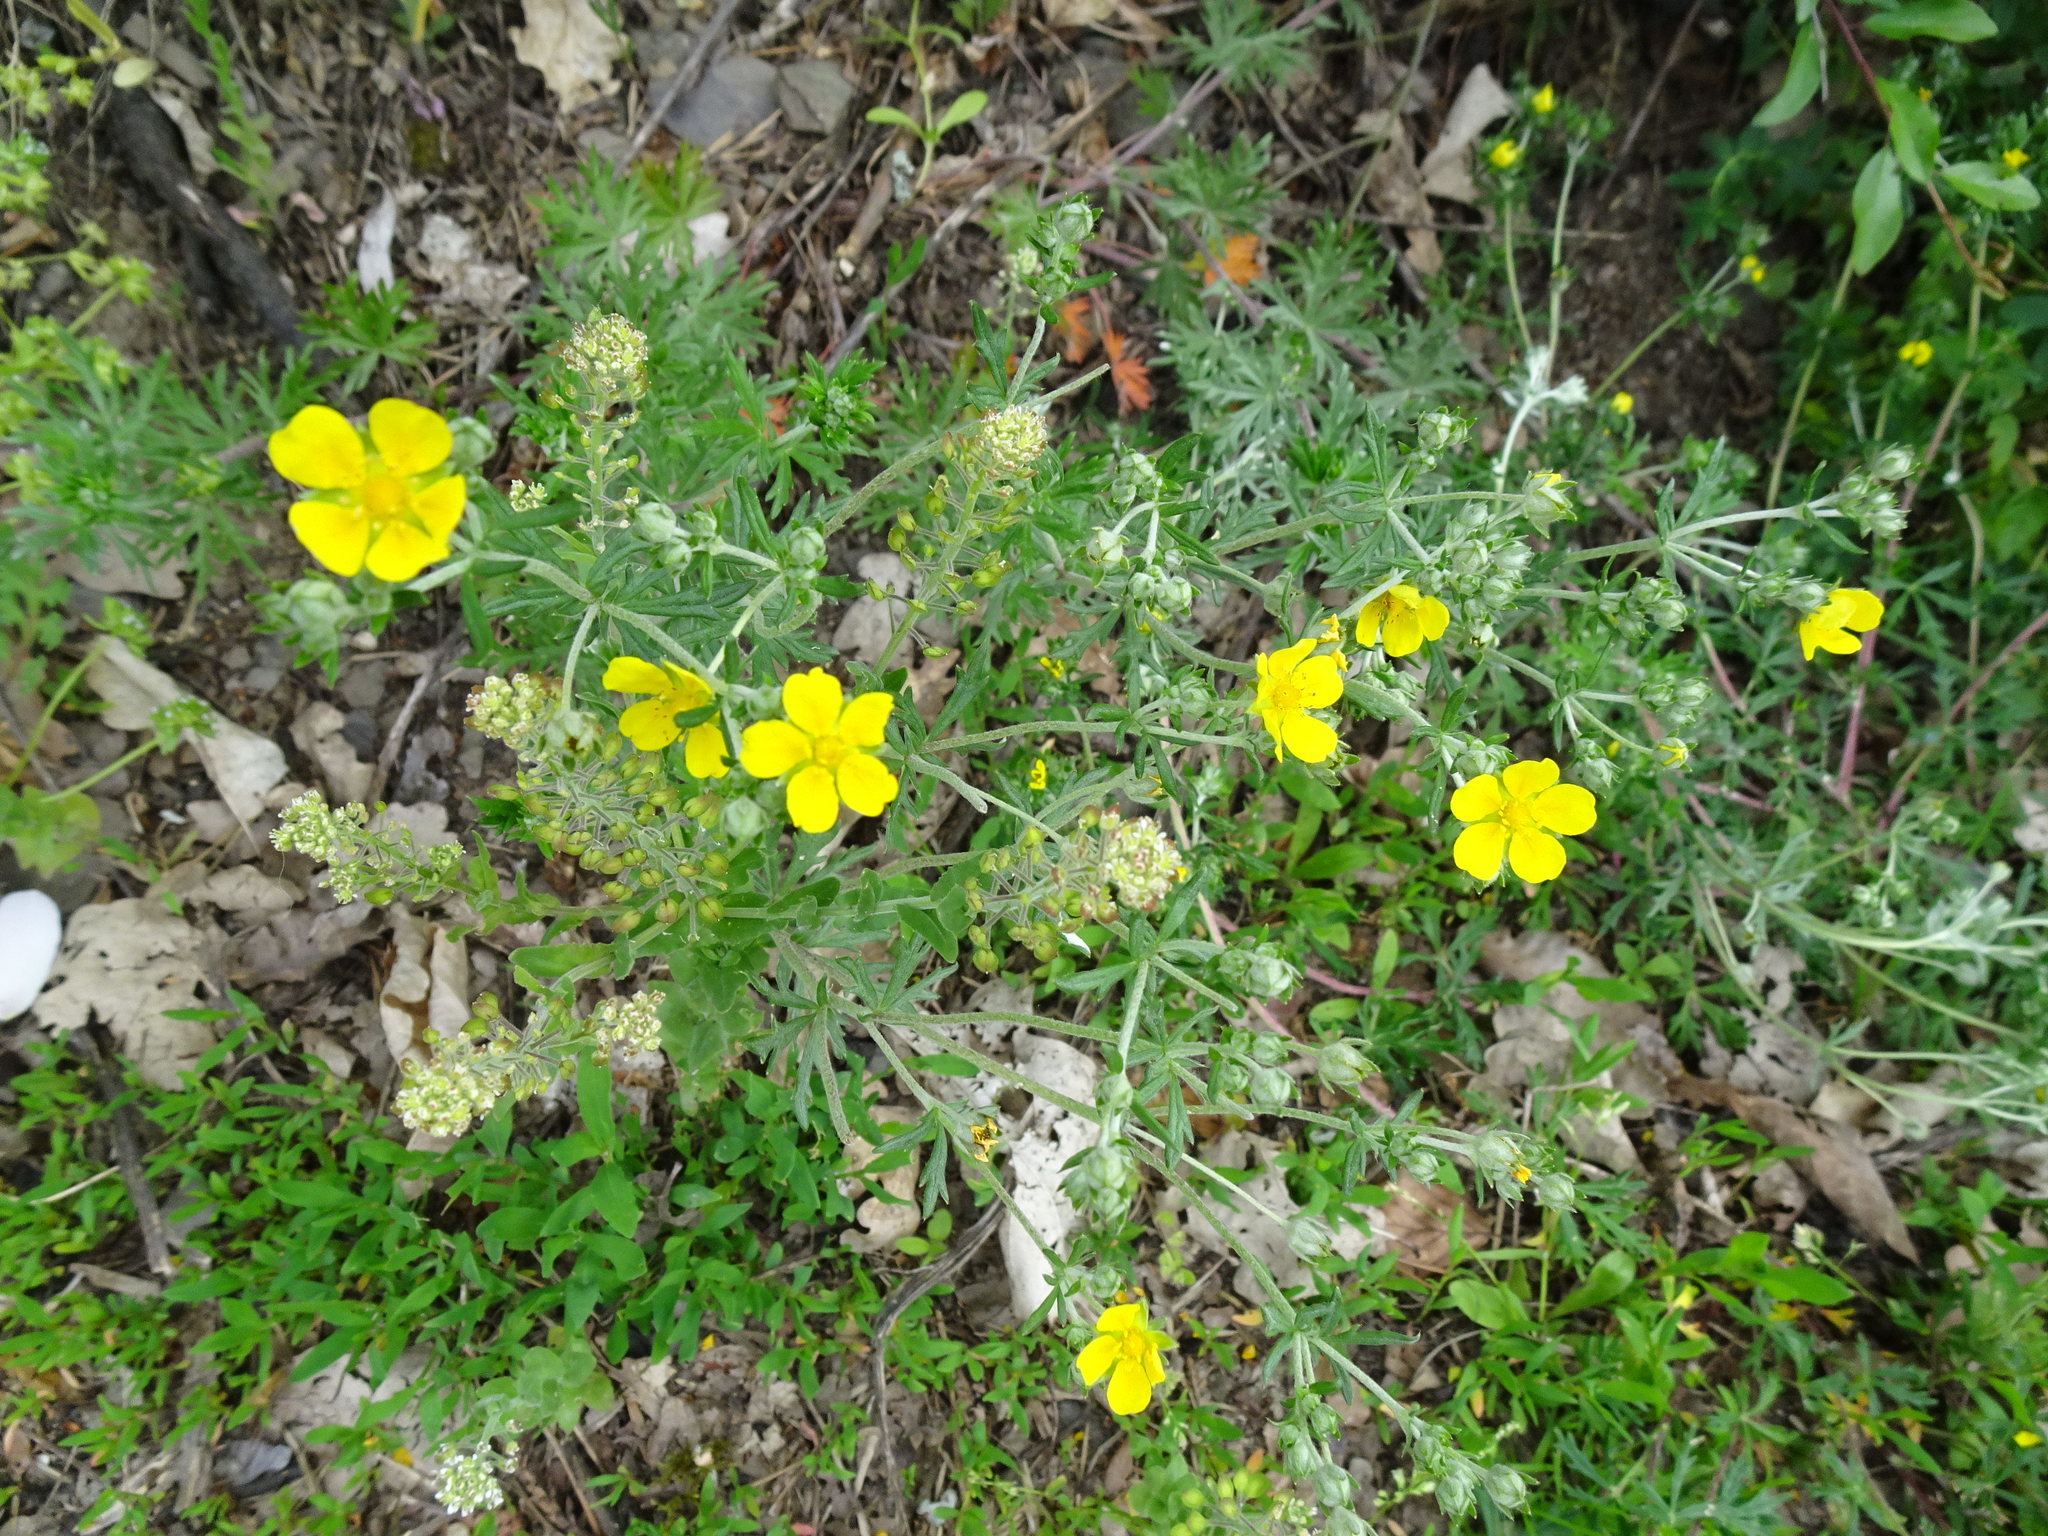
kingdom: Plantae
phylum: Tracheophyta
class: Magnoliopsida
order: Rosales
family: Rosaceae
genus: Potentilla
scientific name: Potentilla argentea
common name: Hoary cinquefoil
